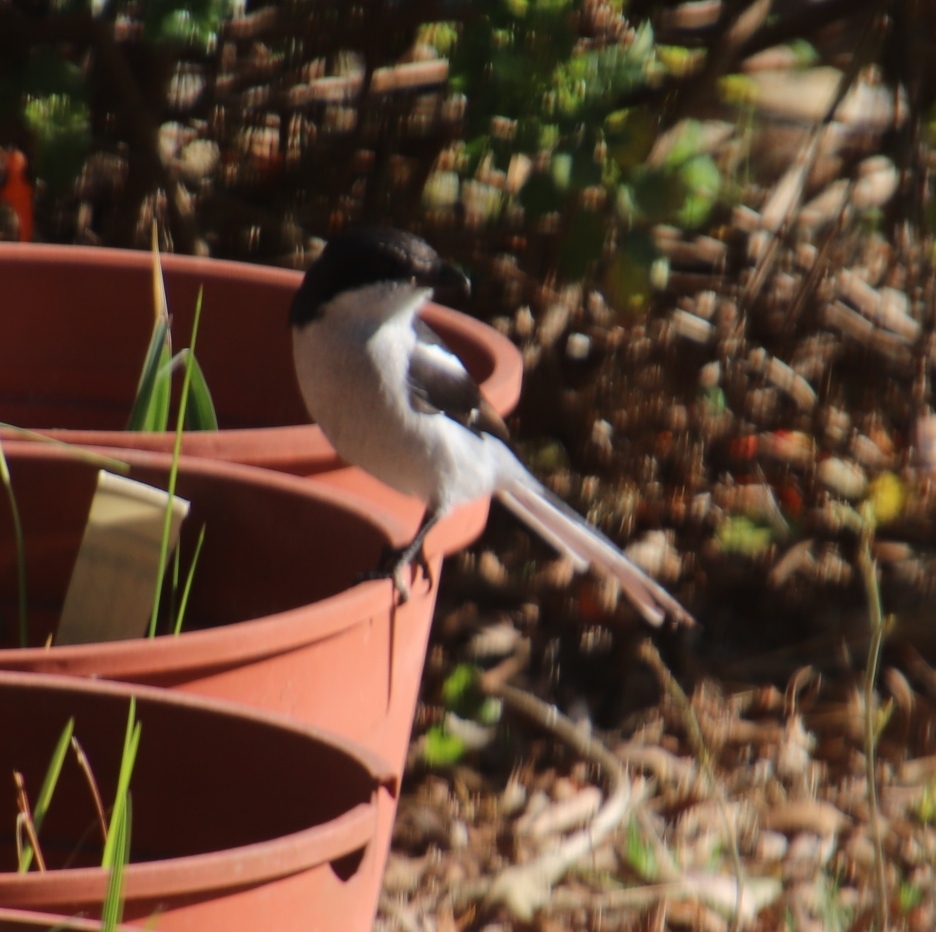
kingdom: Animalia
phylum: Chordata
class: Aves
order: Passeriformes
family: Laniidae
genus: Lanius
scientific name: Lanius collaris
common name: Southern fiscal
